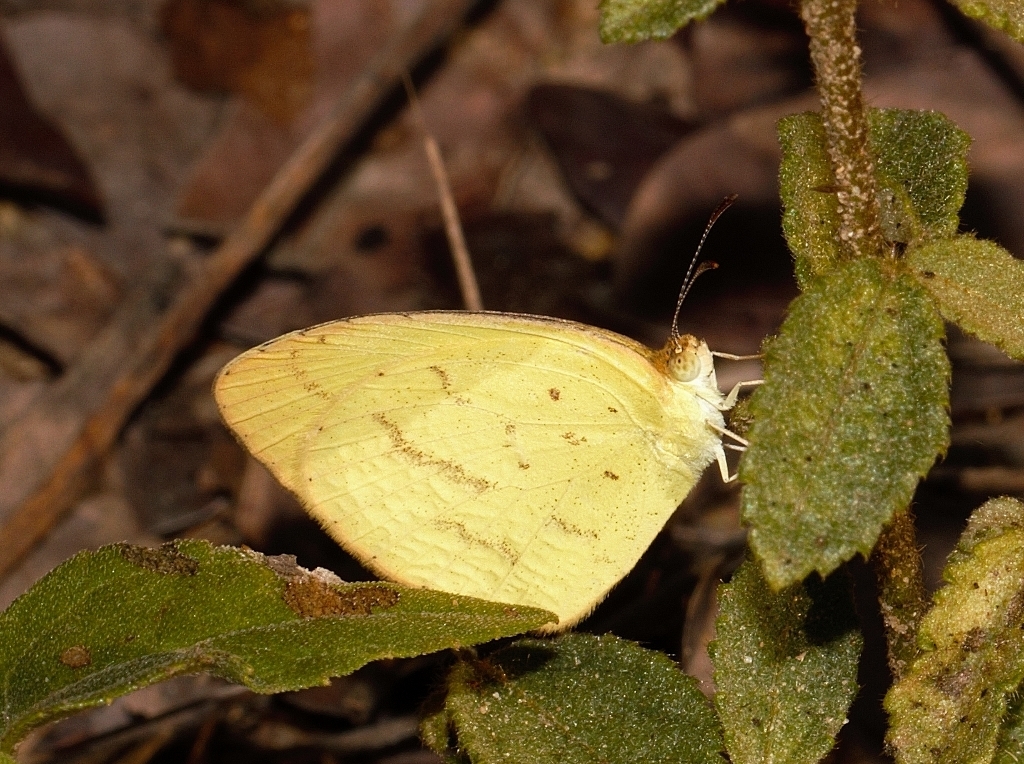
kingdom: Animalia
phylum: Arthropoda
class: Insecta
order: Lepidoptera
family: Pieridae
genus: Eurema
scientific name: Eurema brigitta
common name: Small grass yellow
